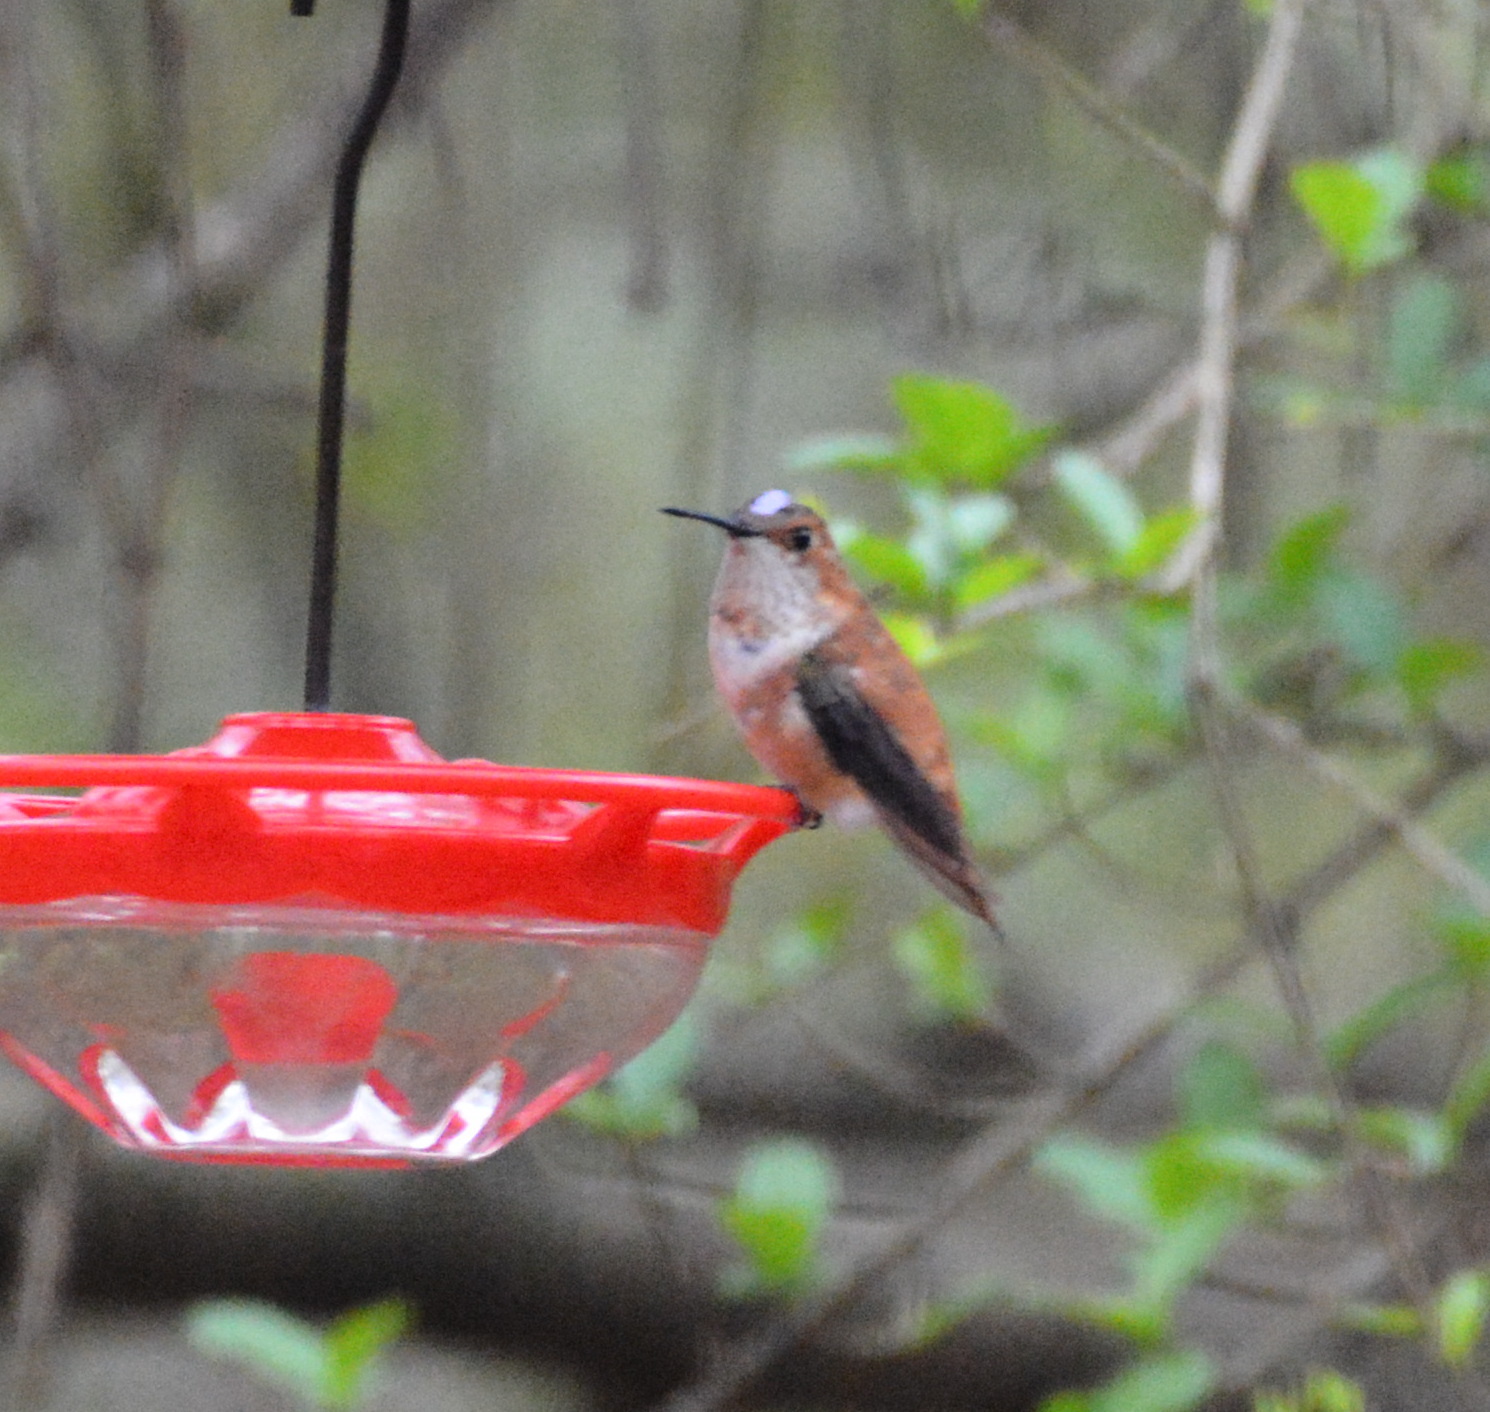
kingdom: Animalia
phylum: Chordata
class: Aves
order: Apodiformes
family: Trochilidae
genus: Selasphorus
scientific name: Selasphorus rufus
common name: Rufous hummingbird
